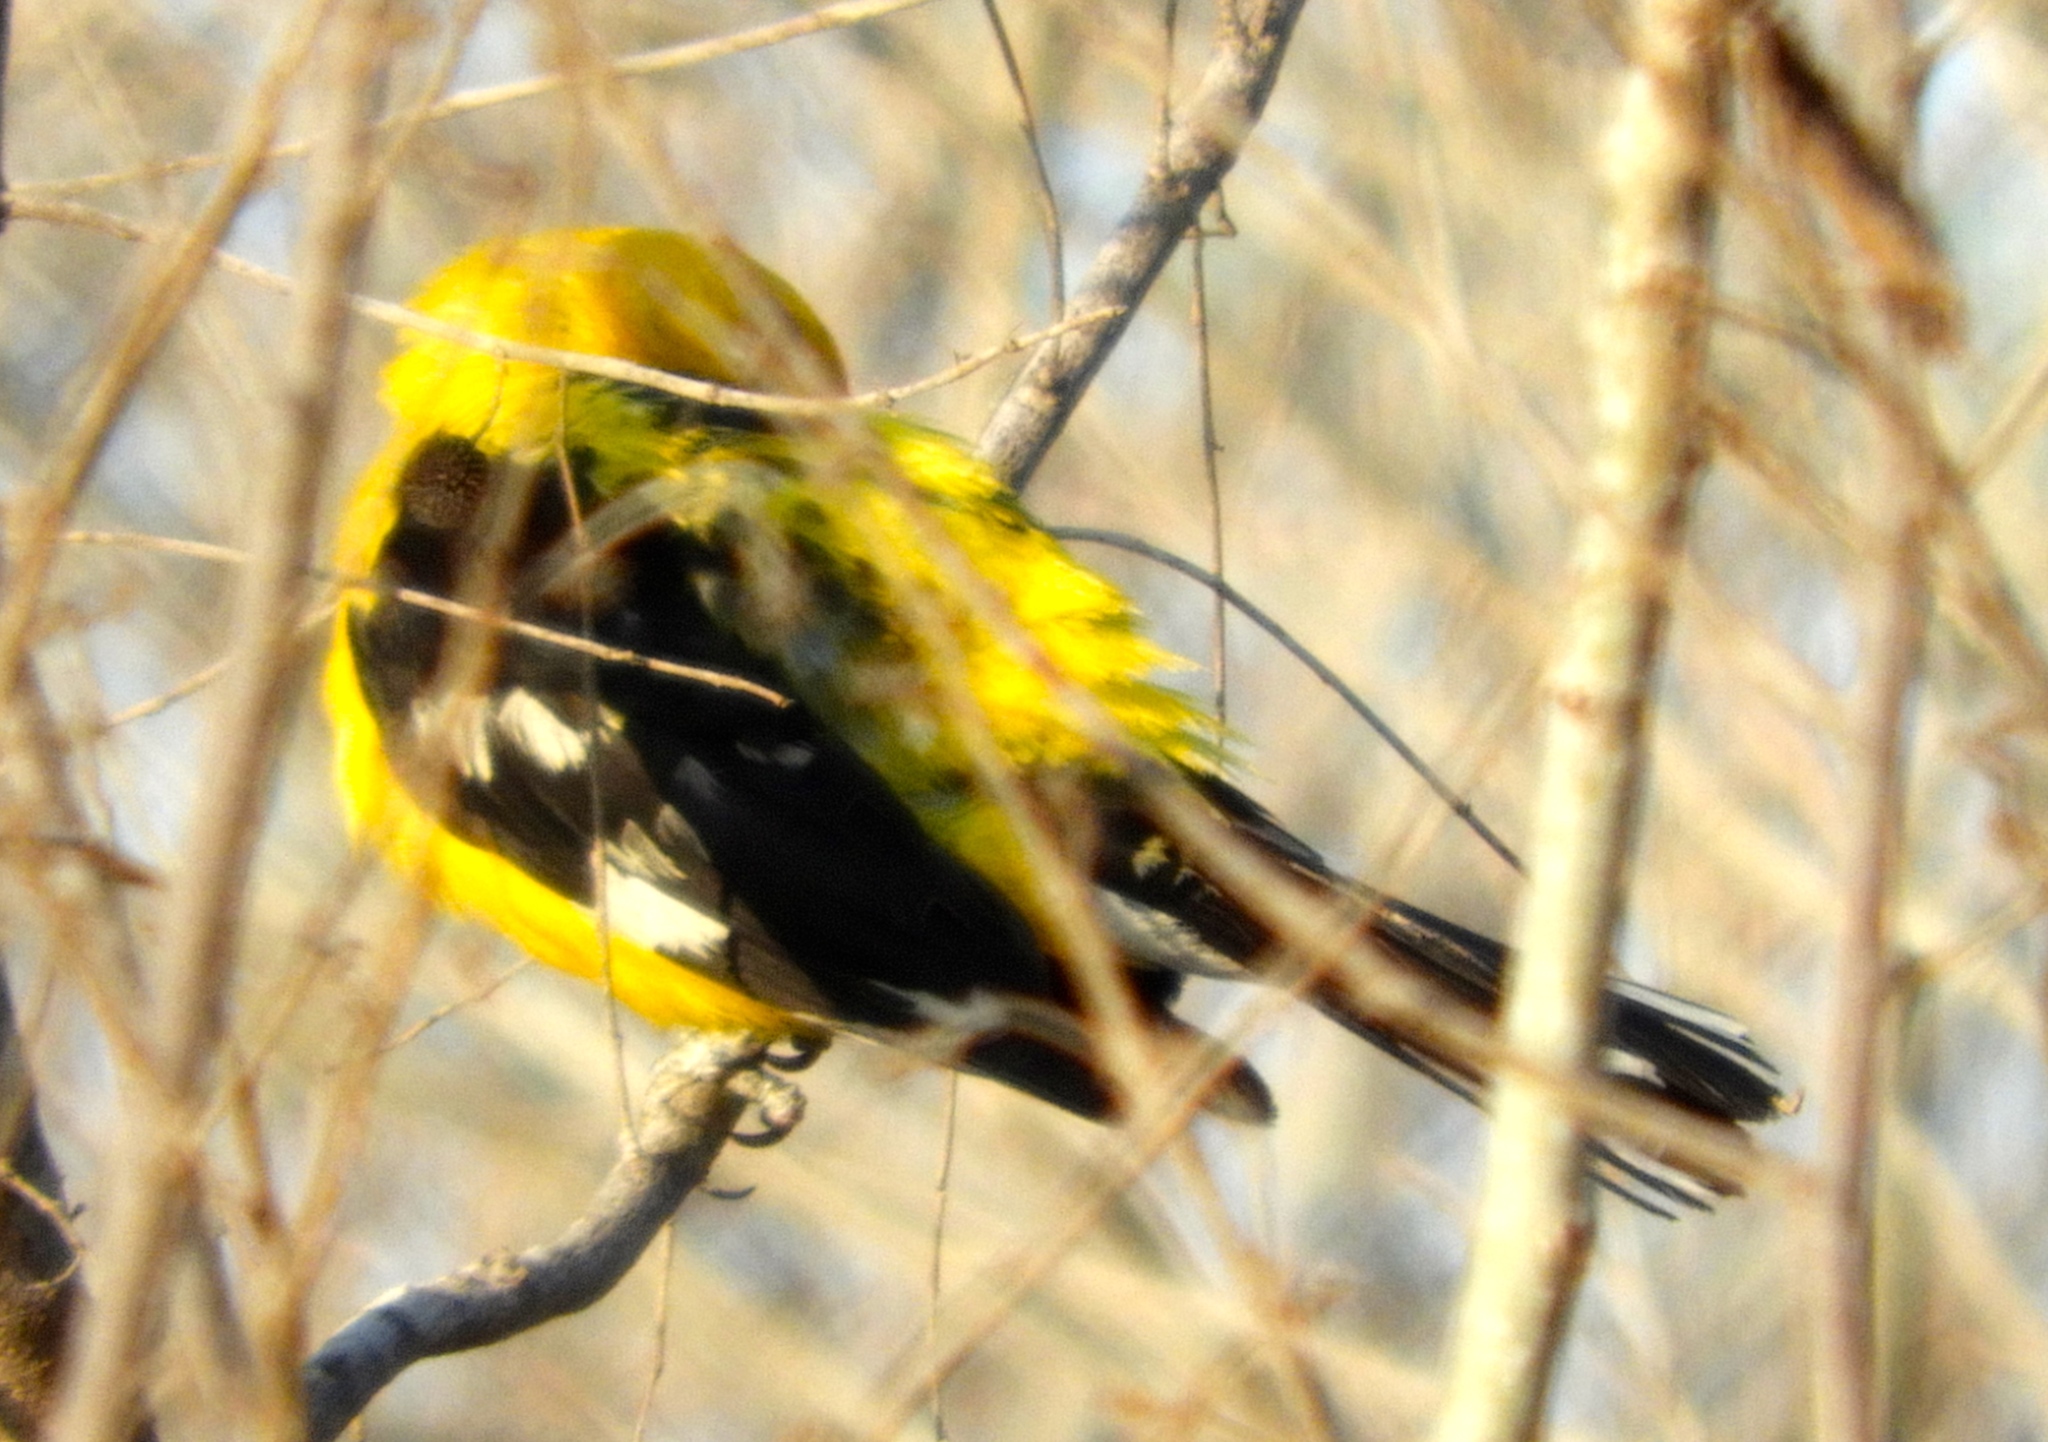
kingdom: Animalia
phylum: Chordata
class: Aves
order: Passeriformes
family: Cardinalidae
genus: Pheucticus
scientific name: Pheucticus chrysopeplus
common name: Yellow grosbeak
